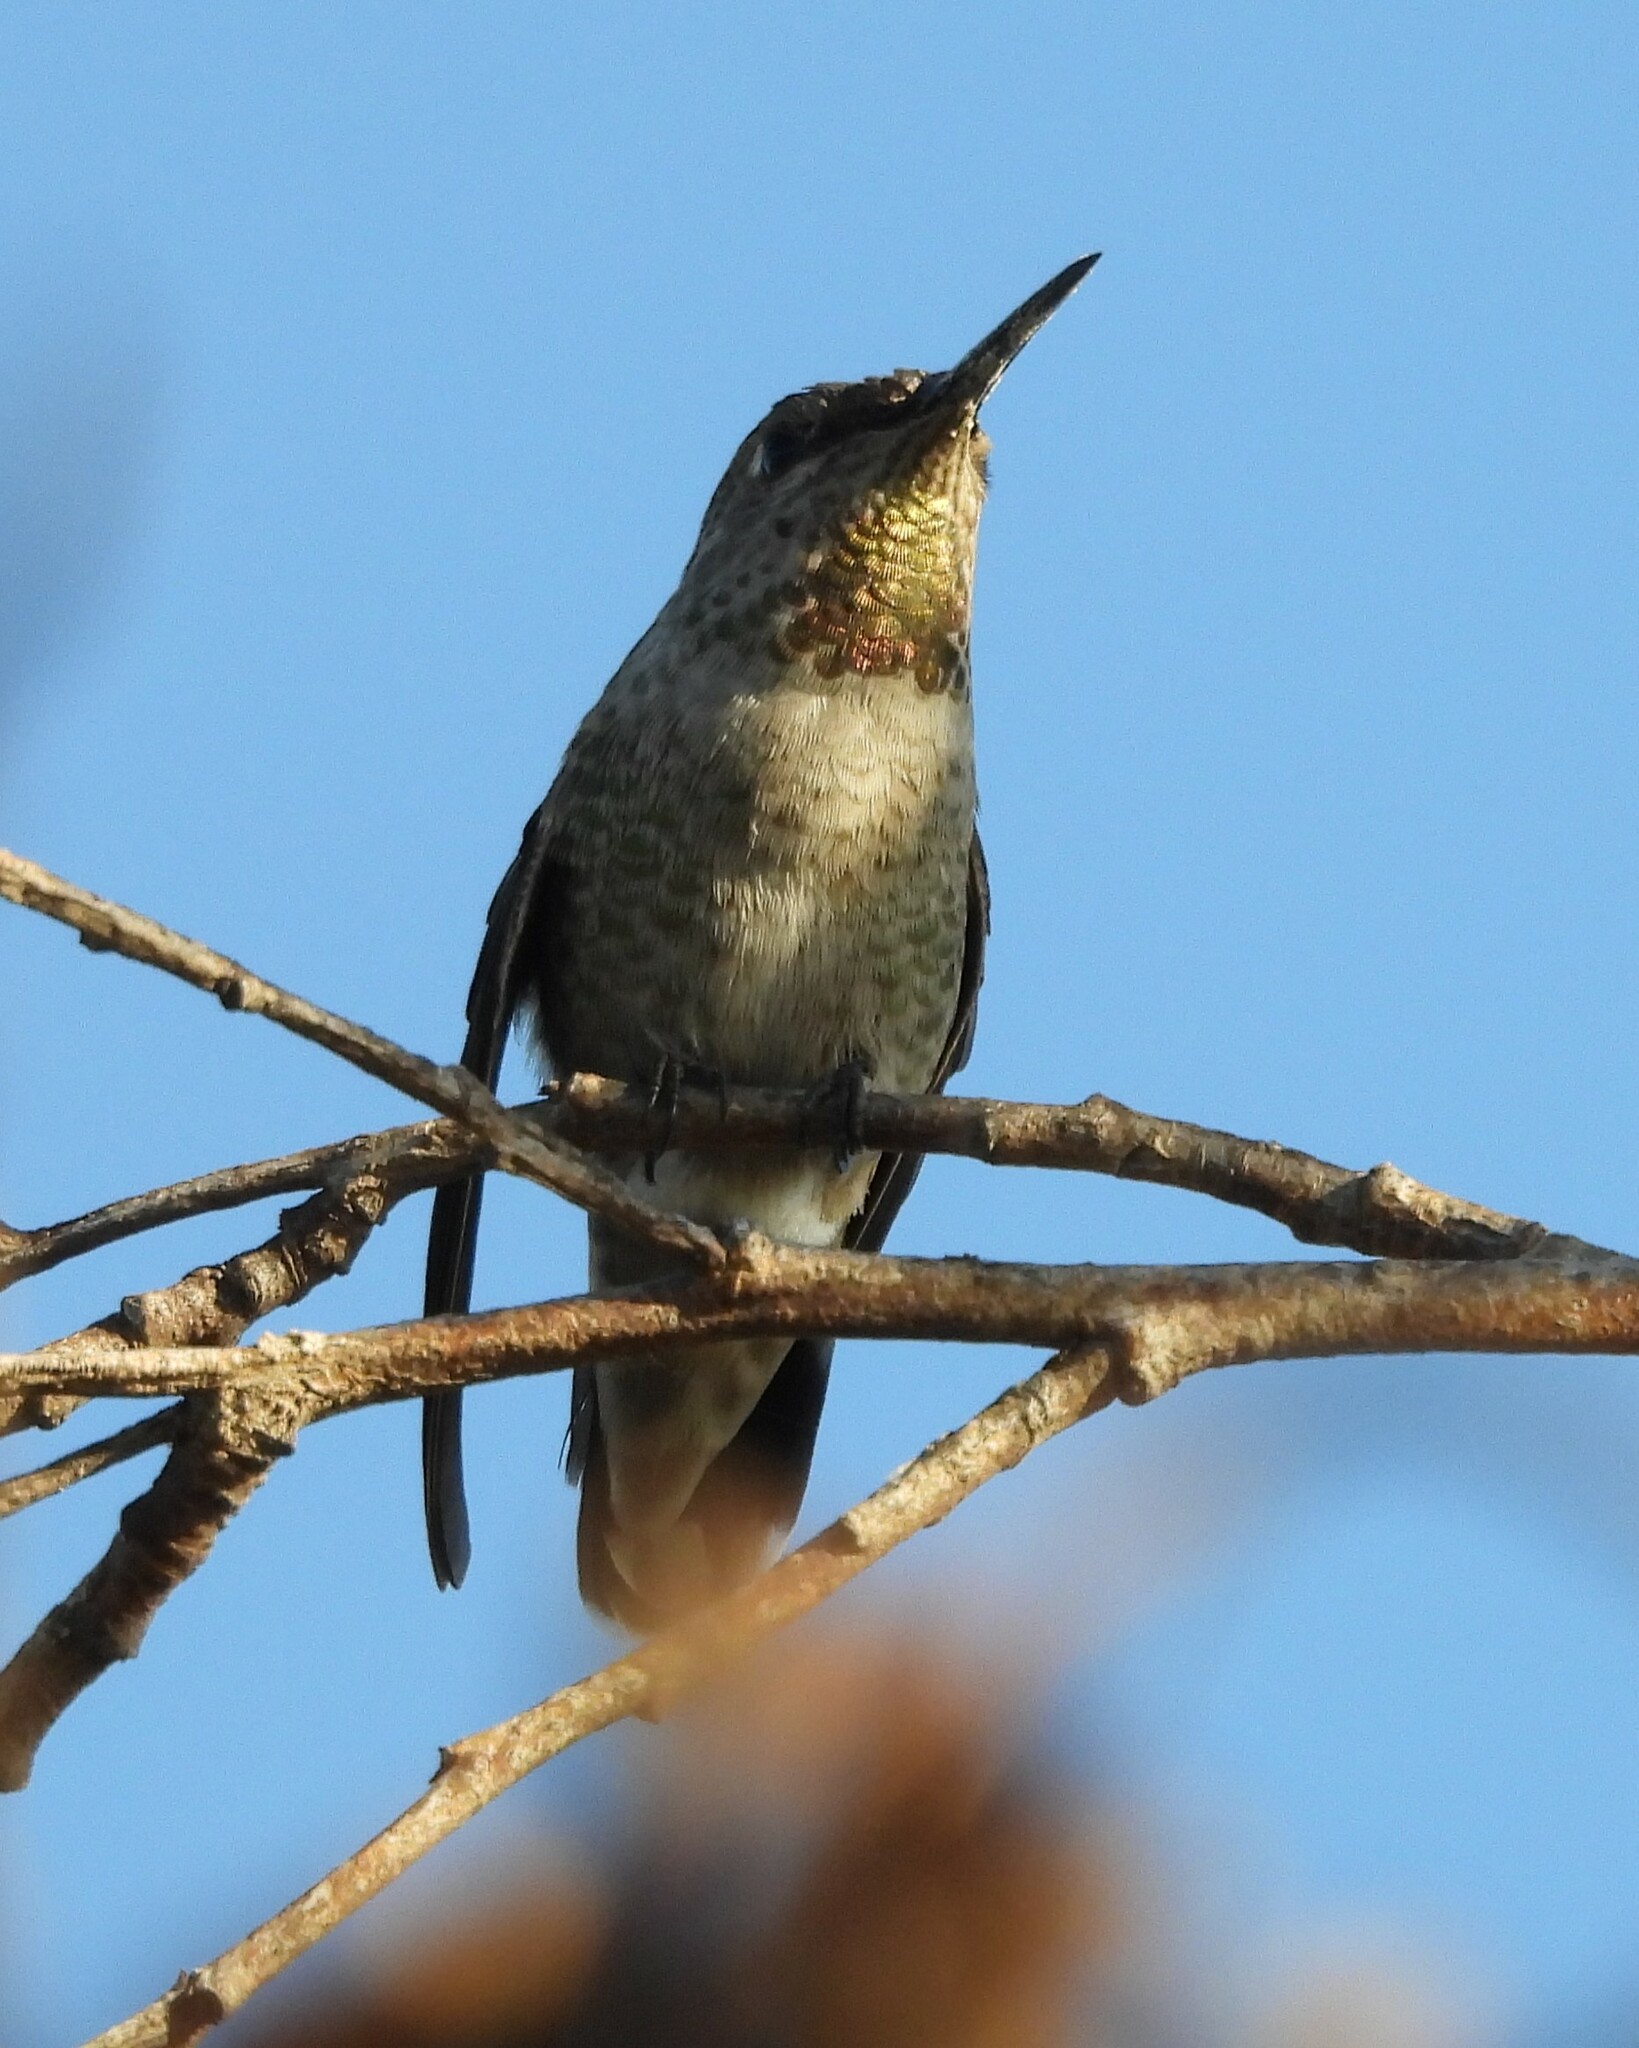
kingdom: Animalia
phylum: Chordata
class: Aves
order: Apodiformes
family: Trochilidae
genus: Calypte
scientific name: Calypte anna
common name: Anna's hummingbird
